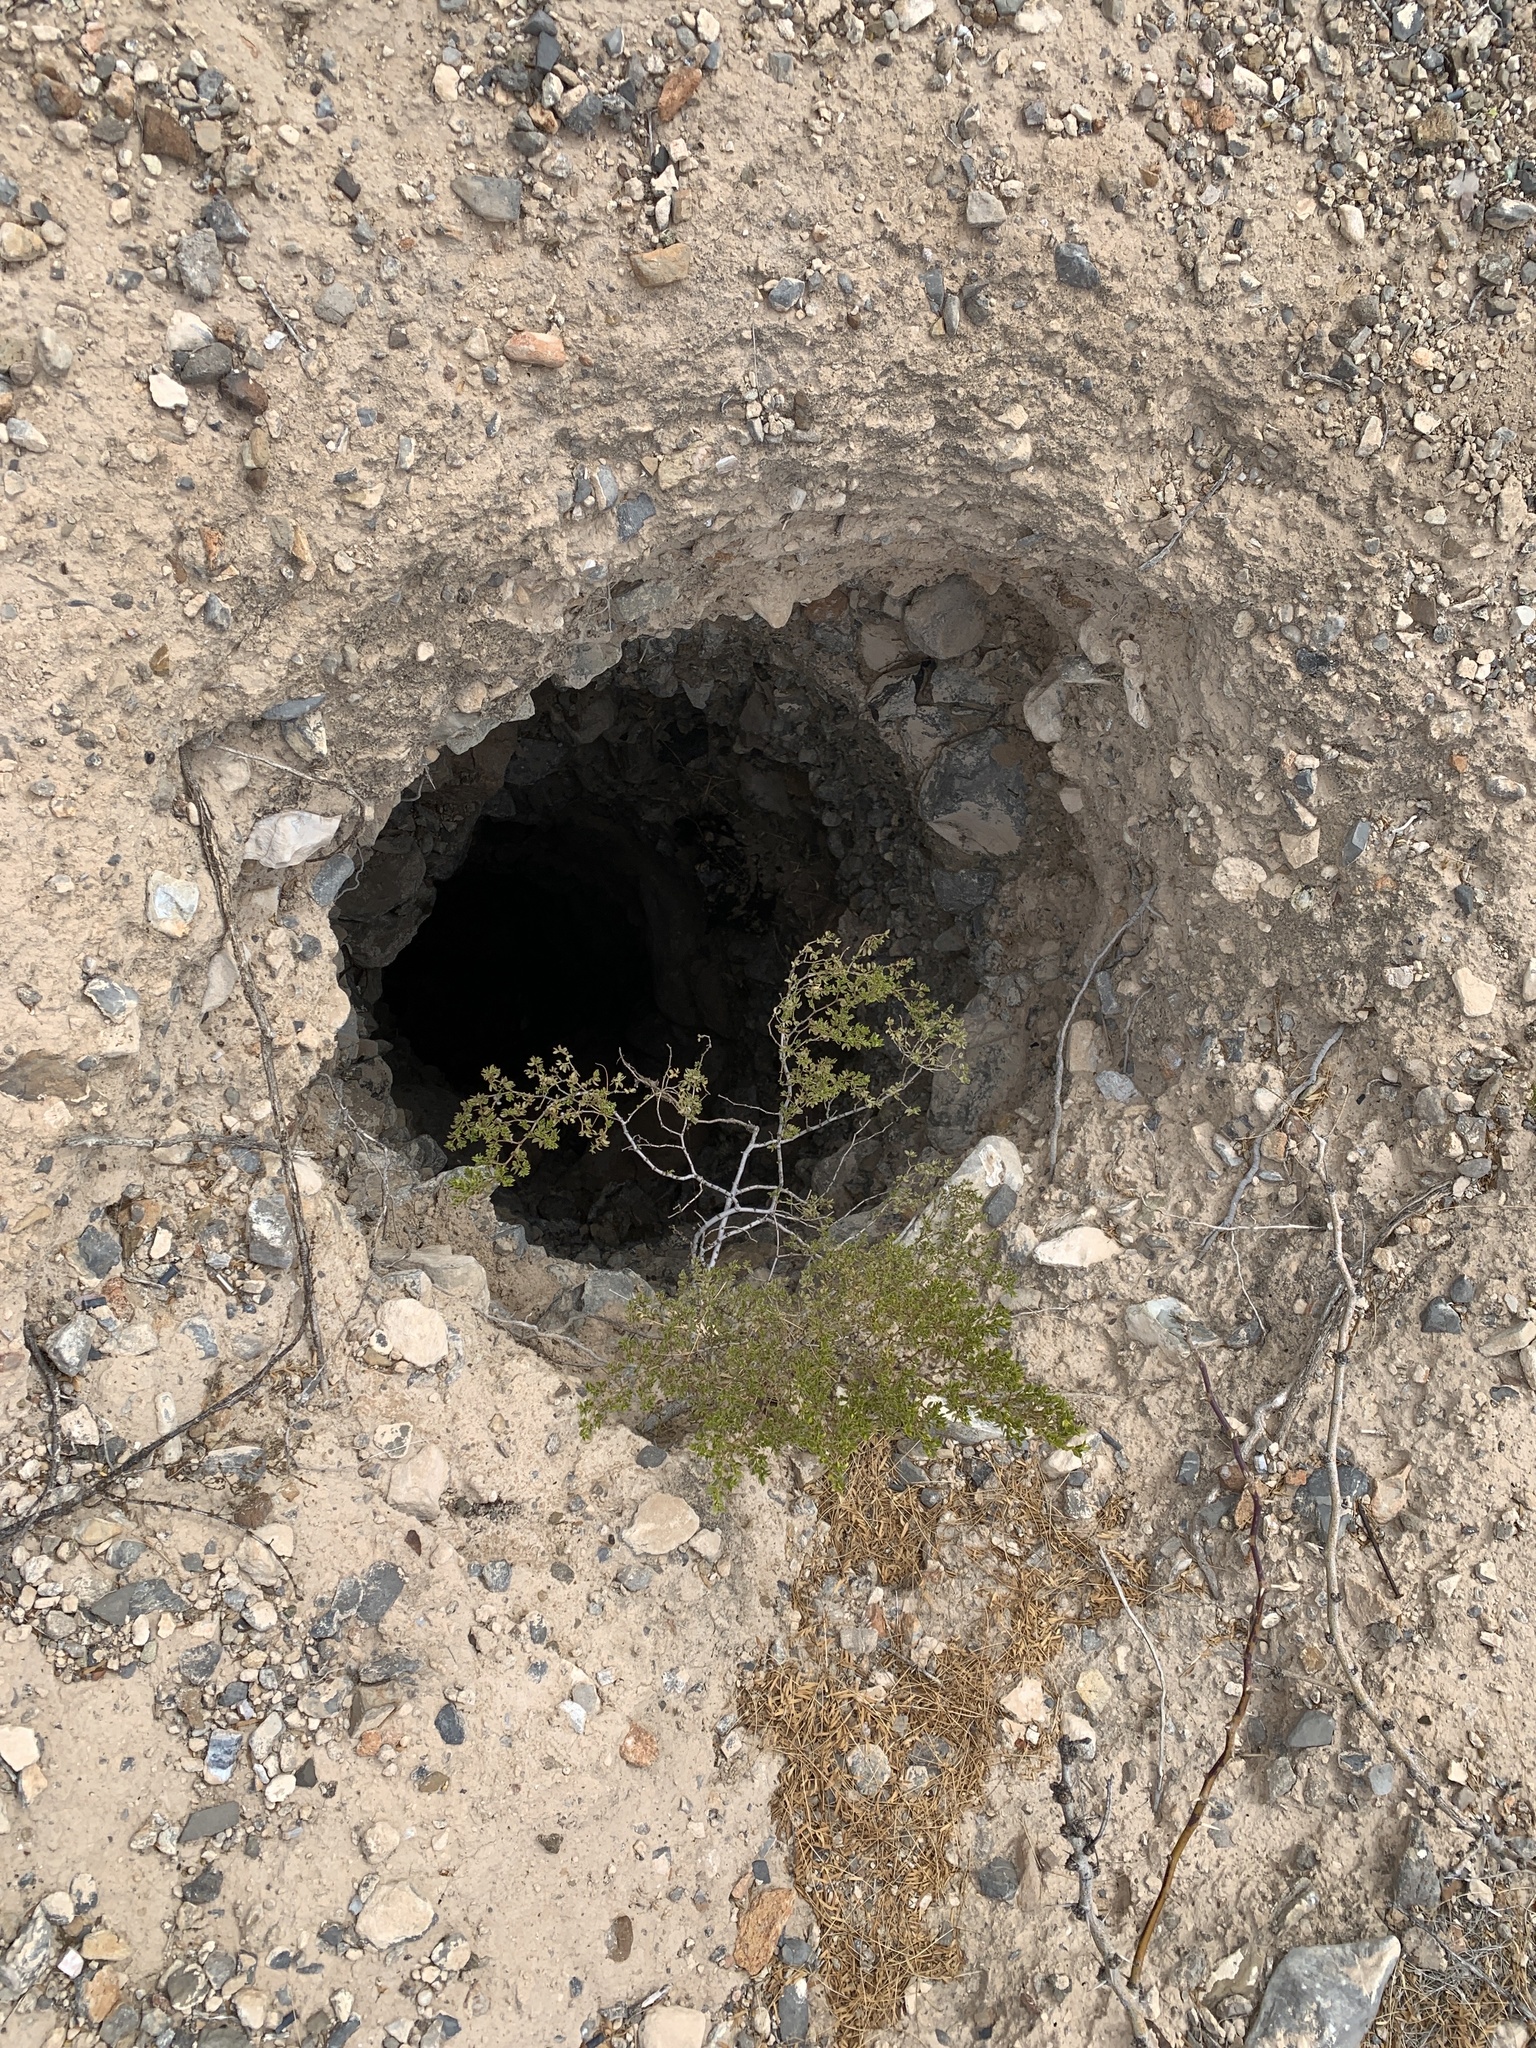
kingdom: Plantae
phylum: Tracheophyta
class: Magnoliopsida
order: Zygophyllales
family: Zygophyllaceae
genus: Larrea
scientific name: Larrea tridentata
